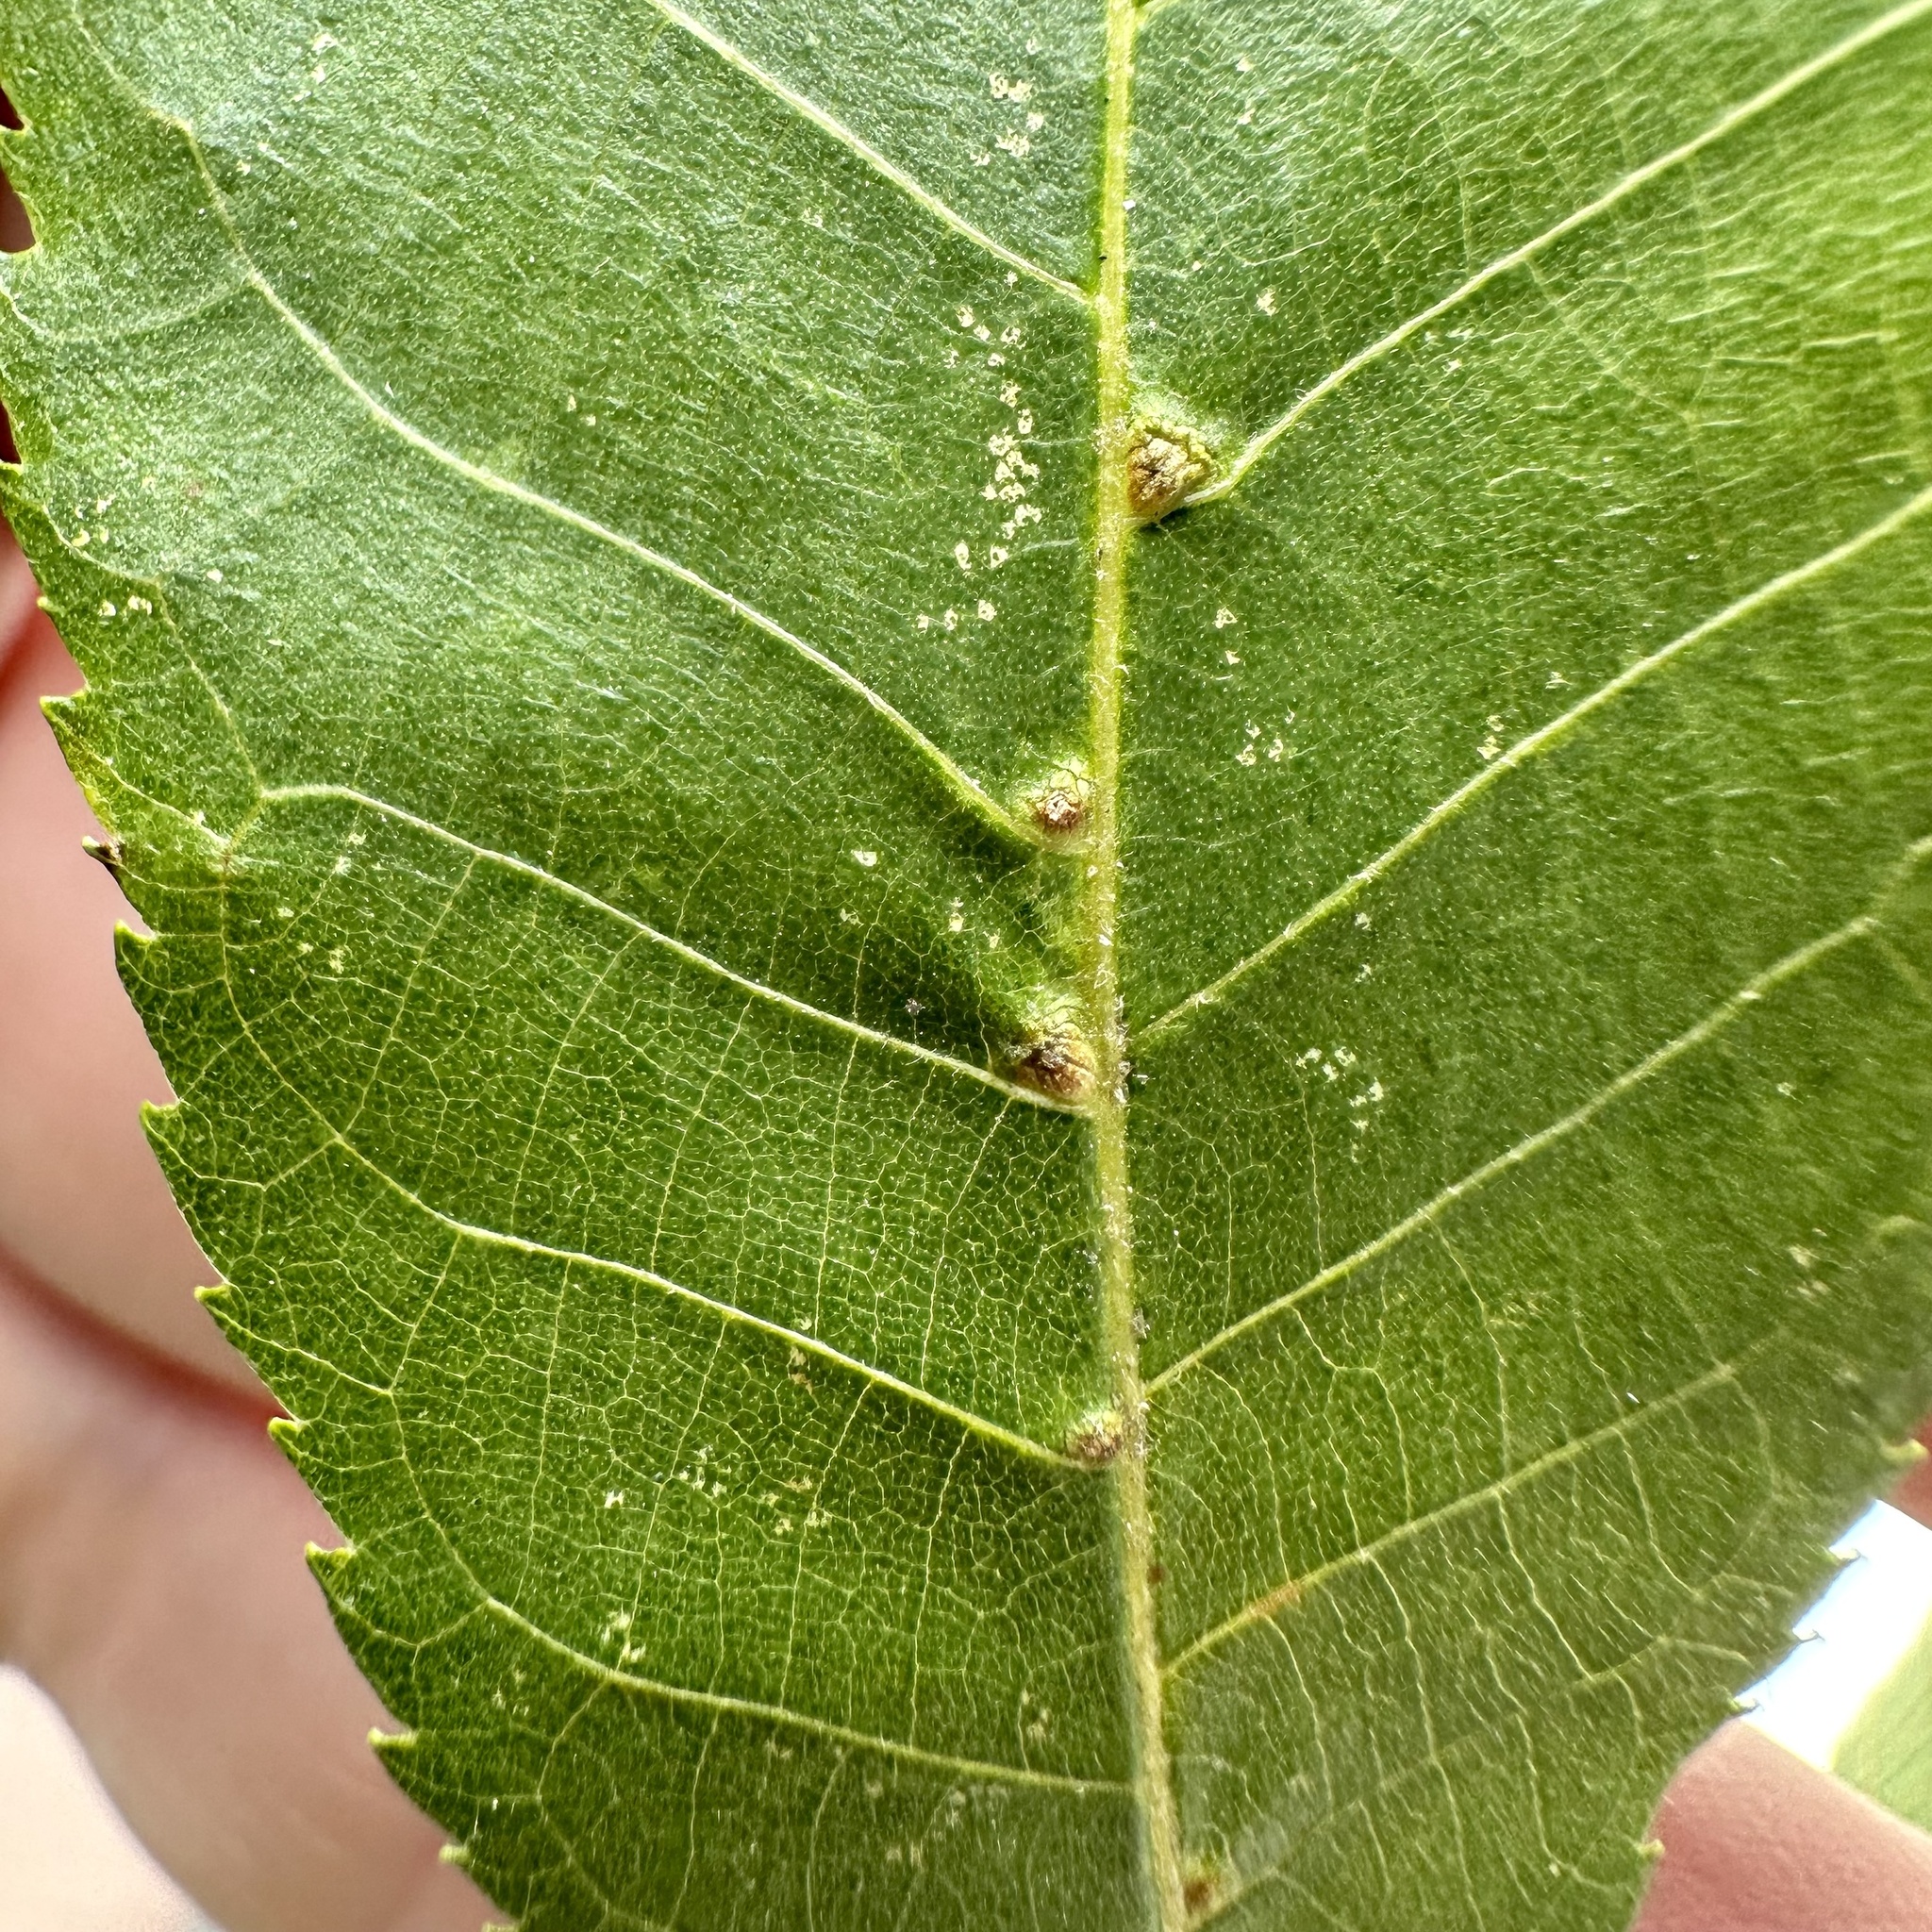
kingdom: Animalia
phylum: Arthropoda
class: Arachnida
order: Trombidiformes
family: Eriophyidae
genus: Aceria
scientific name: Aceria
